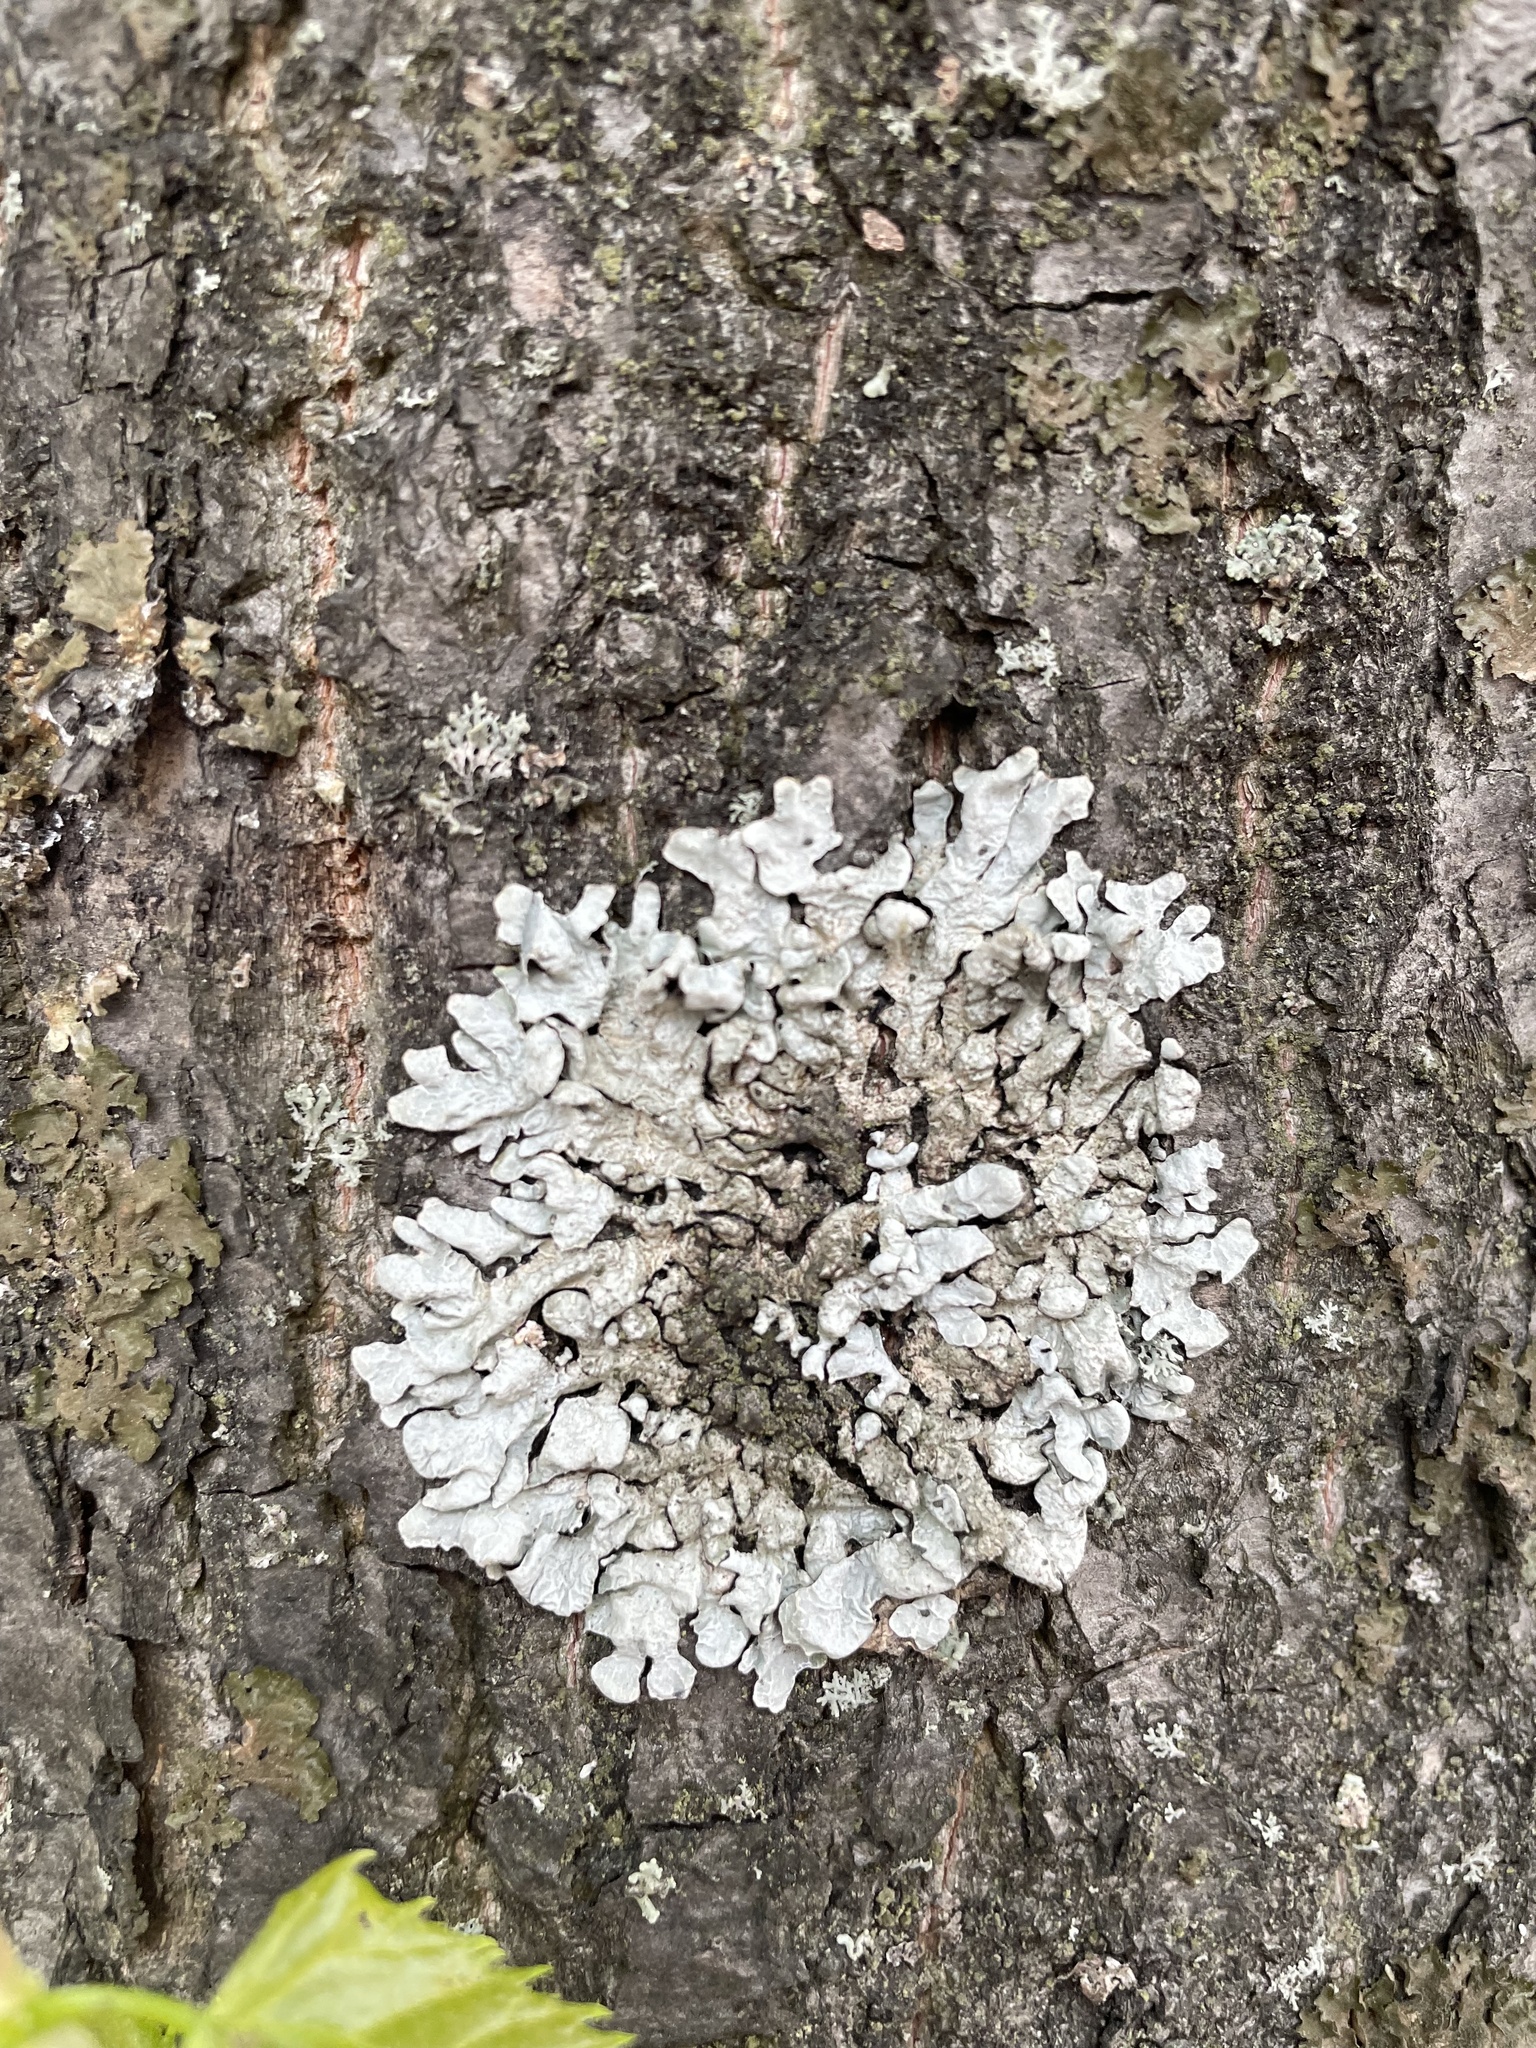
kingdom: Fungi
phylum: Ascomycota
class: Lecanoromycetes
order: Lecanorales
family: Parmeliaceae
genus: Parmelia
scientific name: Parmelia sulcata
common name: Netted shield lichen
